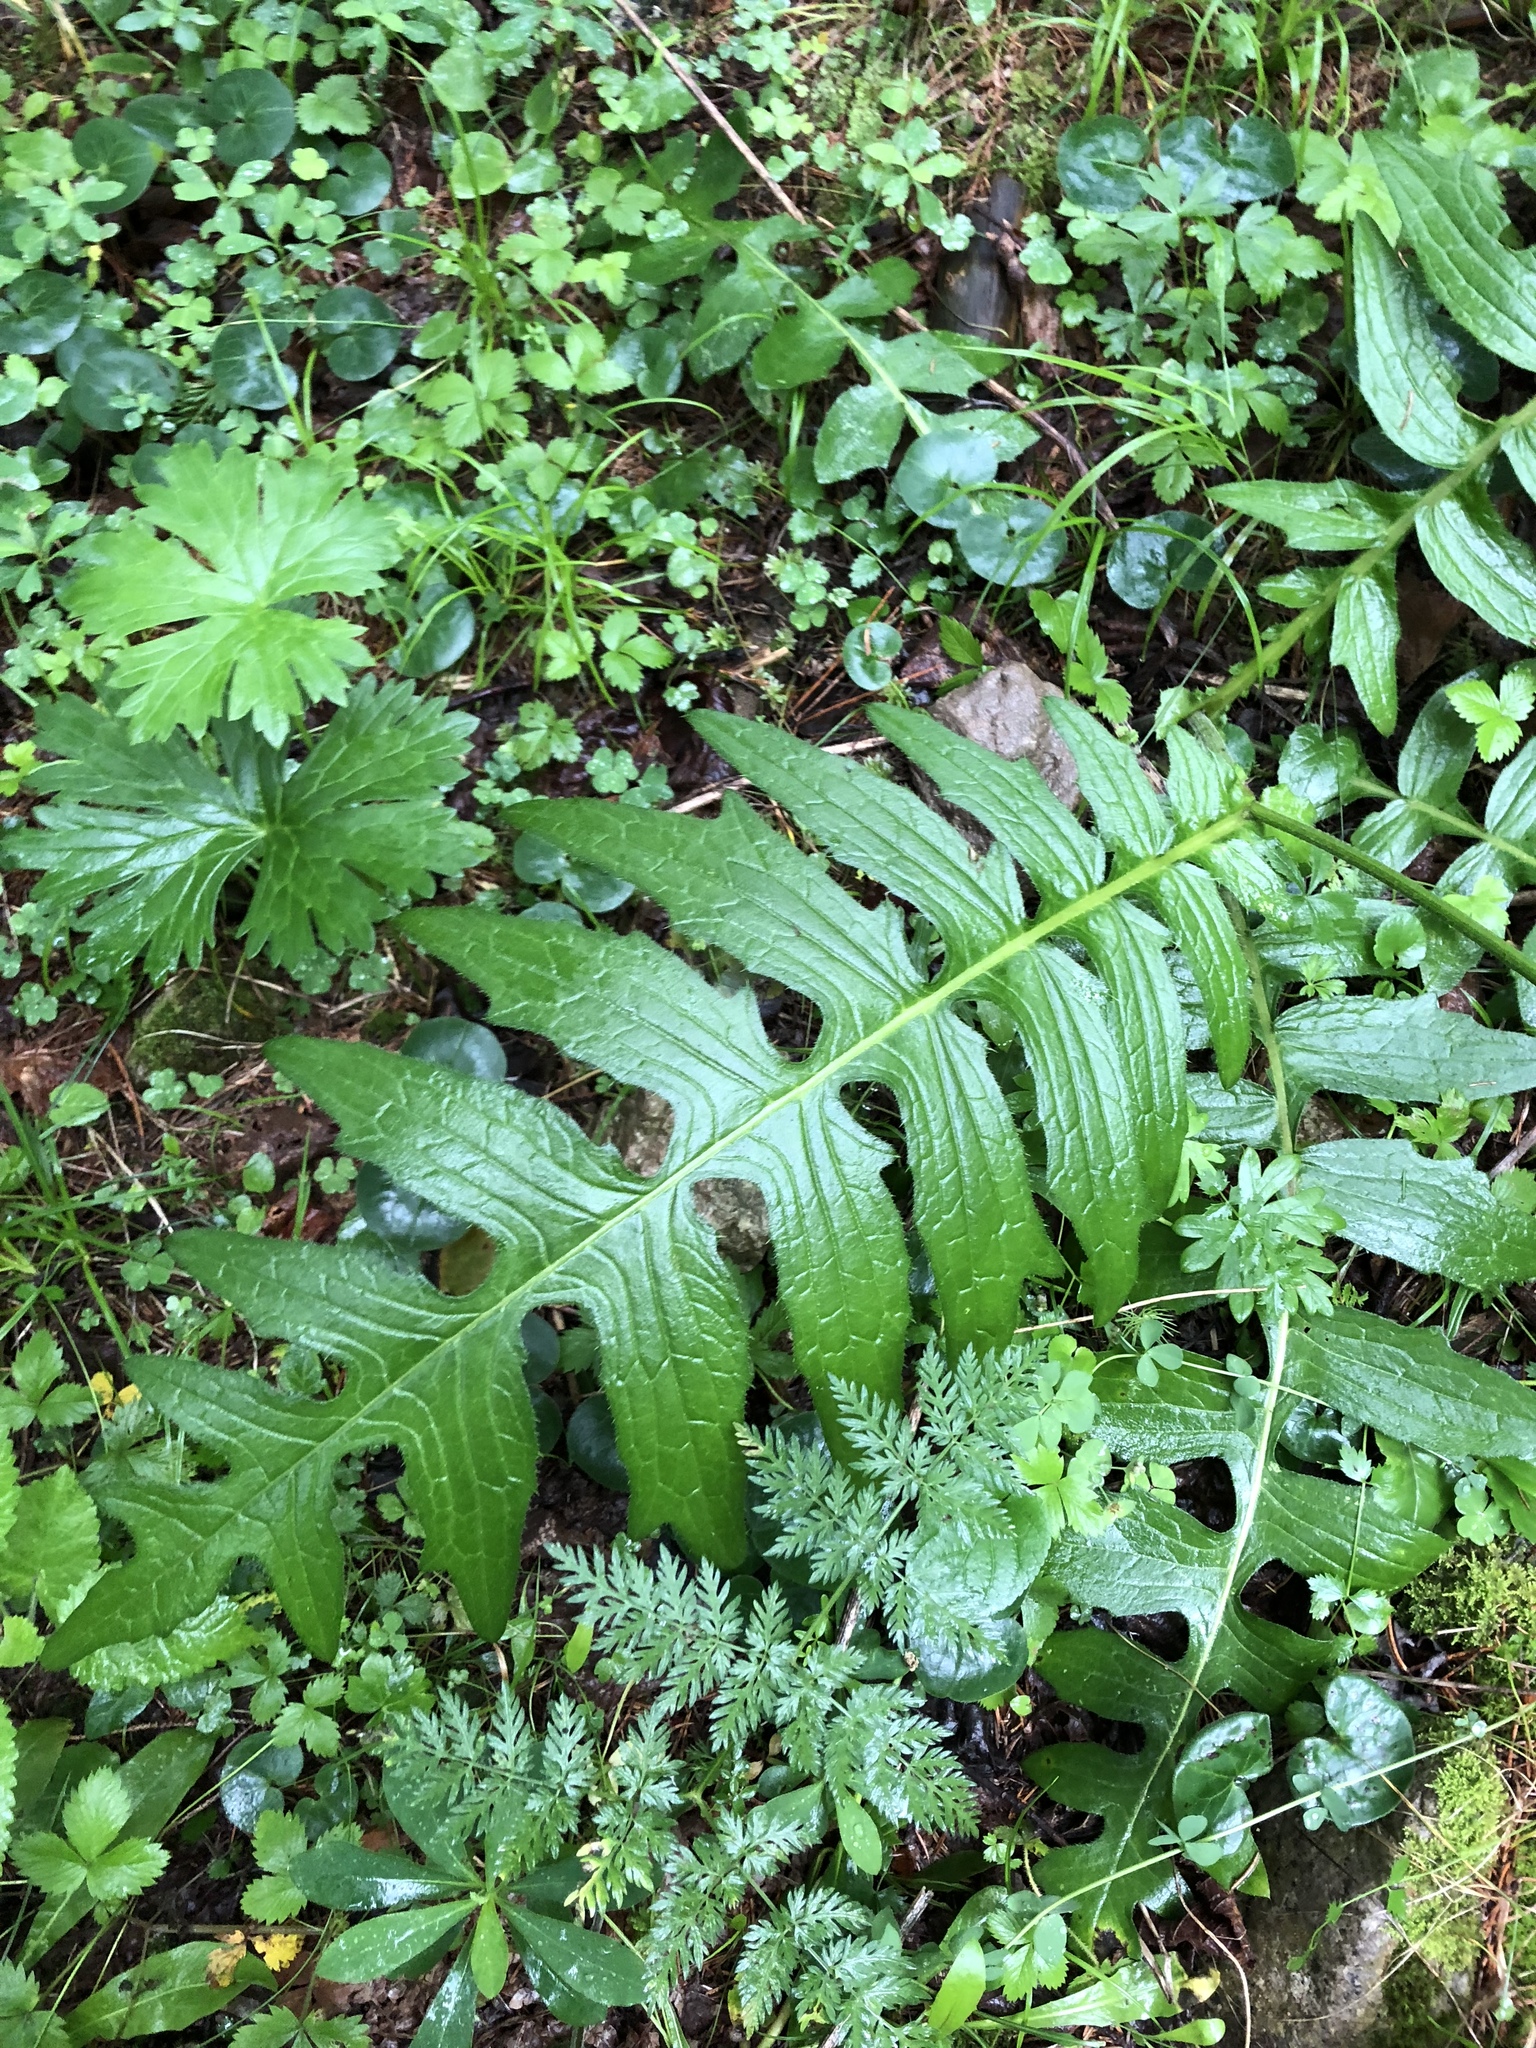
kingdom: Plantae
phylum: Tracheophyta
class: Magnoliopsida
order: Asterales
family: Asteraceae
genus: Cirsium
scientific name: Cirsium erisithales
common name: Yellow thistle
